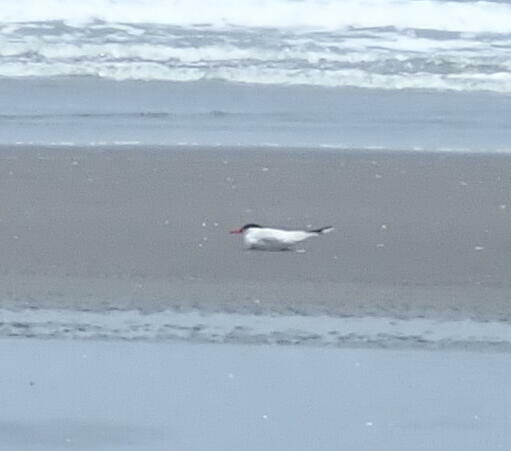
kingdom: Animalia
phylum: Chordata
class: Aves
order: Charadriiformes
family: Laridae
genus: Hydroprogne
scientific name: Hydroprogne caspia
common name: Caspian tern
